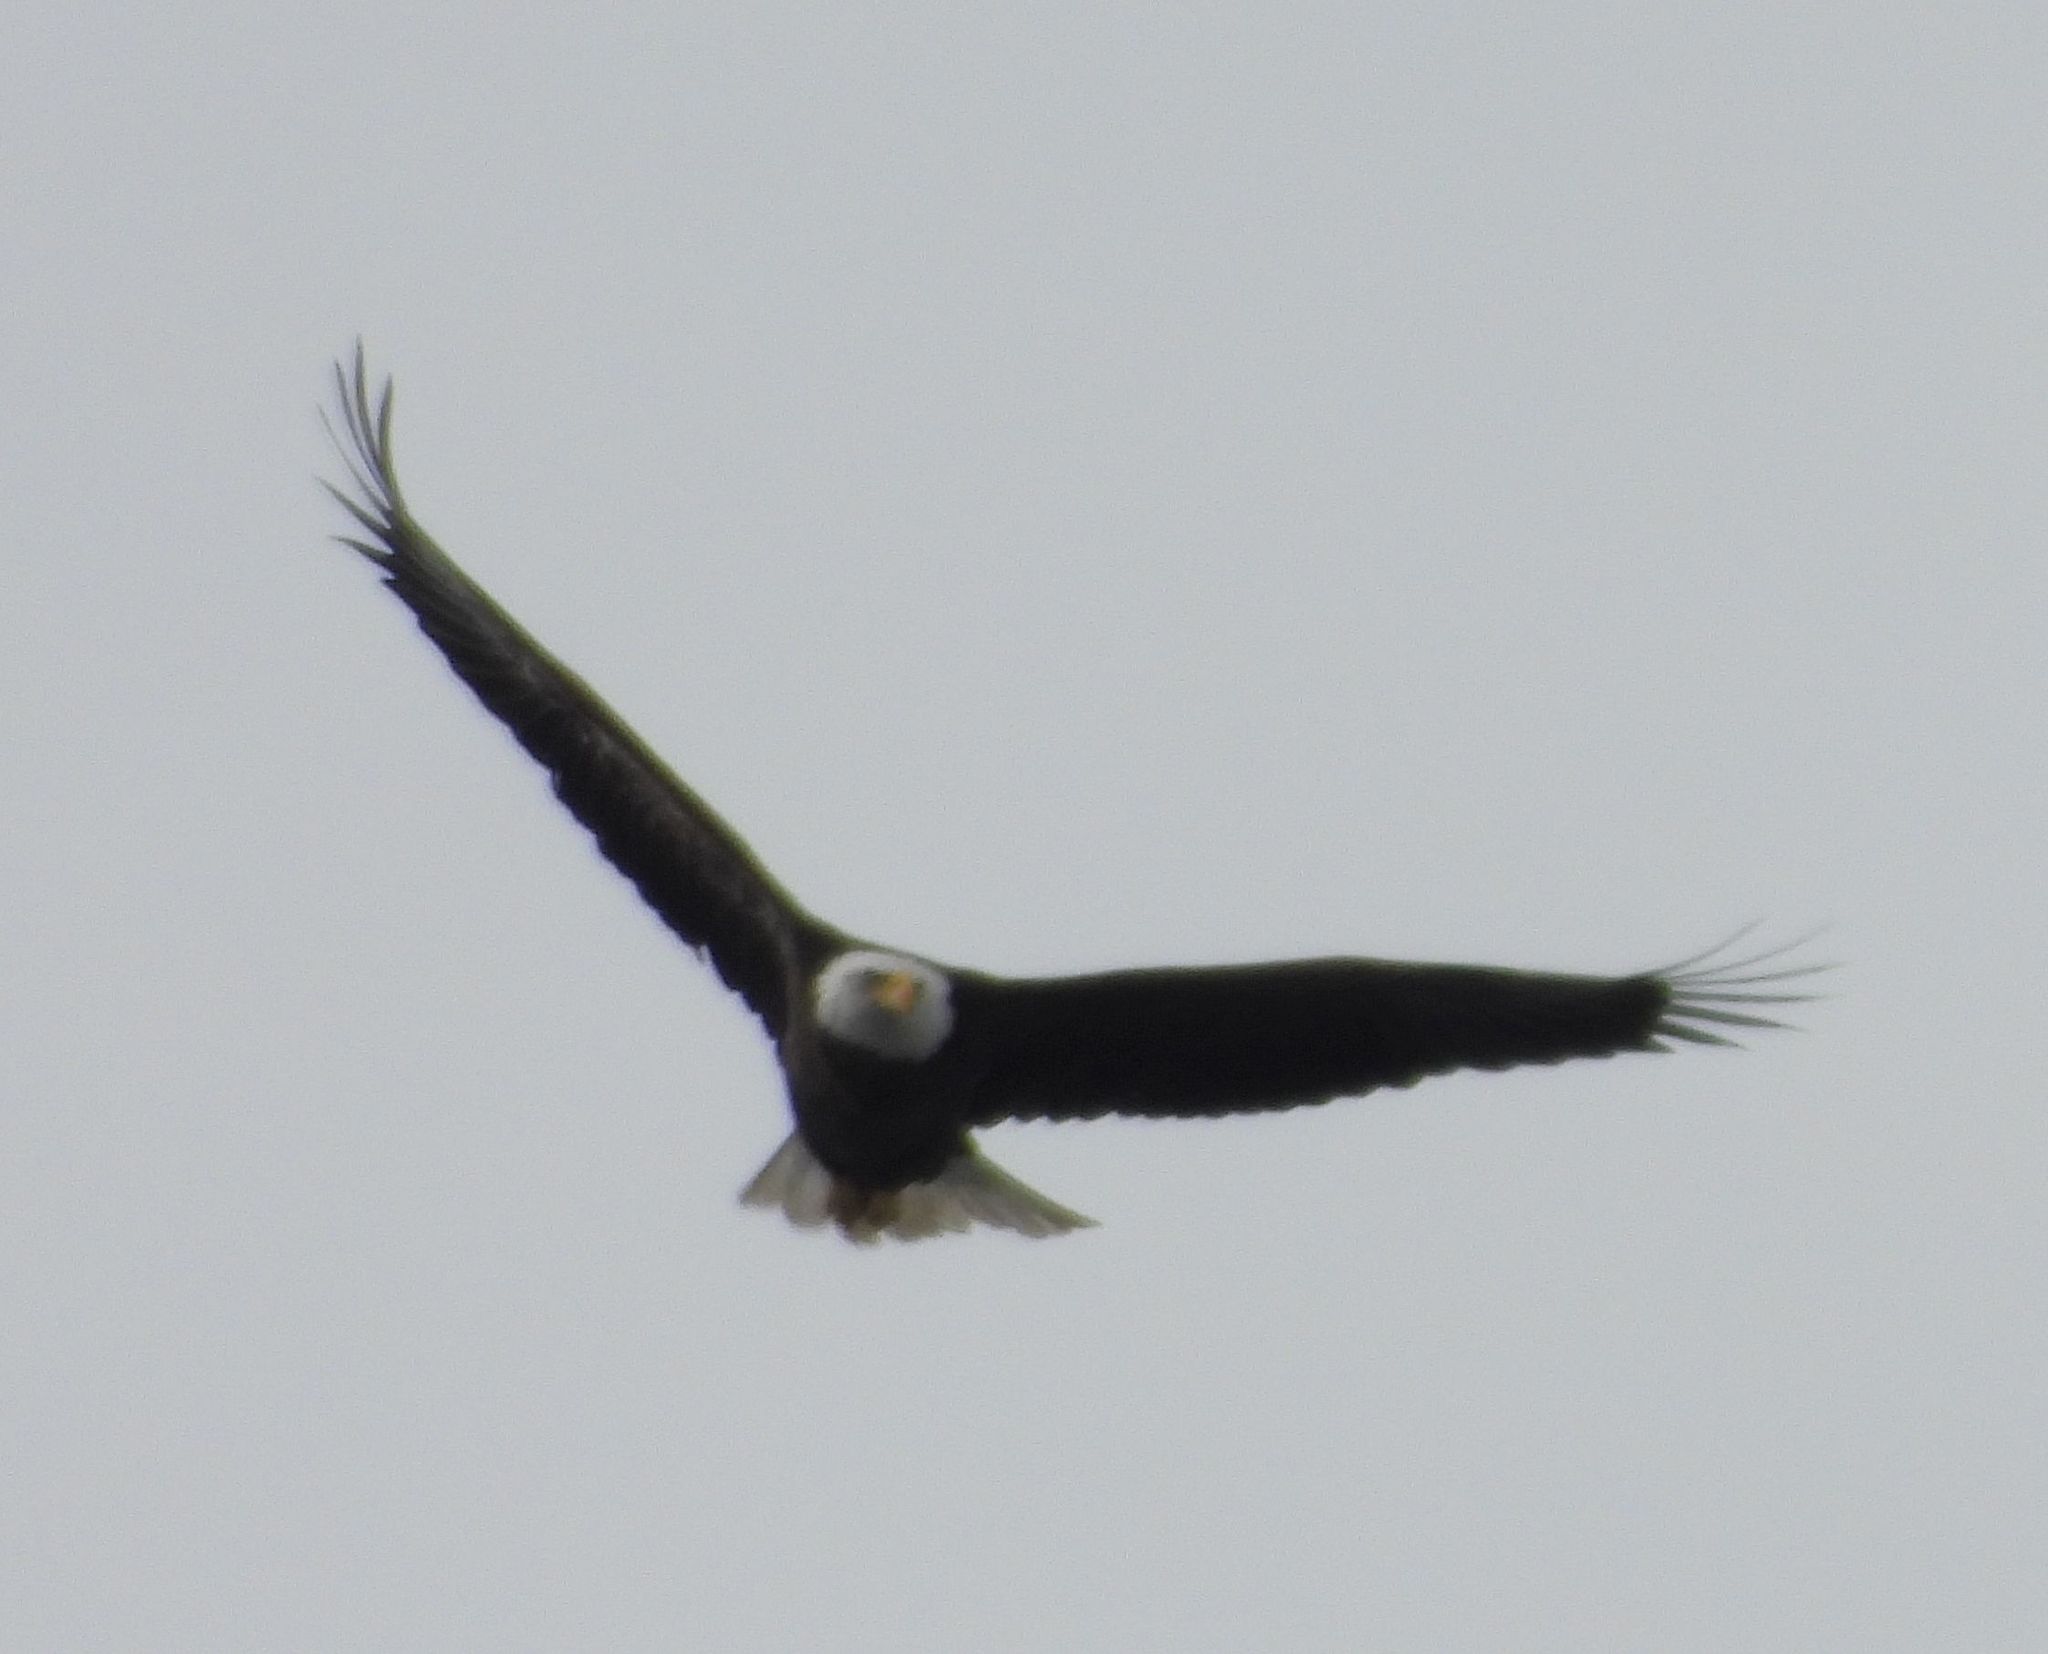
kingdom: Animalia
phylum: Chordata
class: Aves
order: Accipitriformes
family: Accipitridae
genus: Haliaeetus
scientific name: Haliaeetus leucocephalus
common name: Bald eagle
